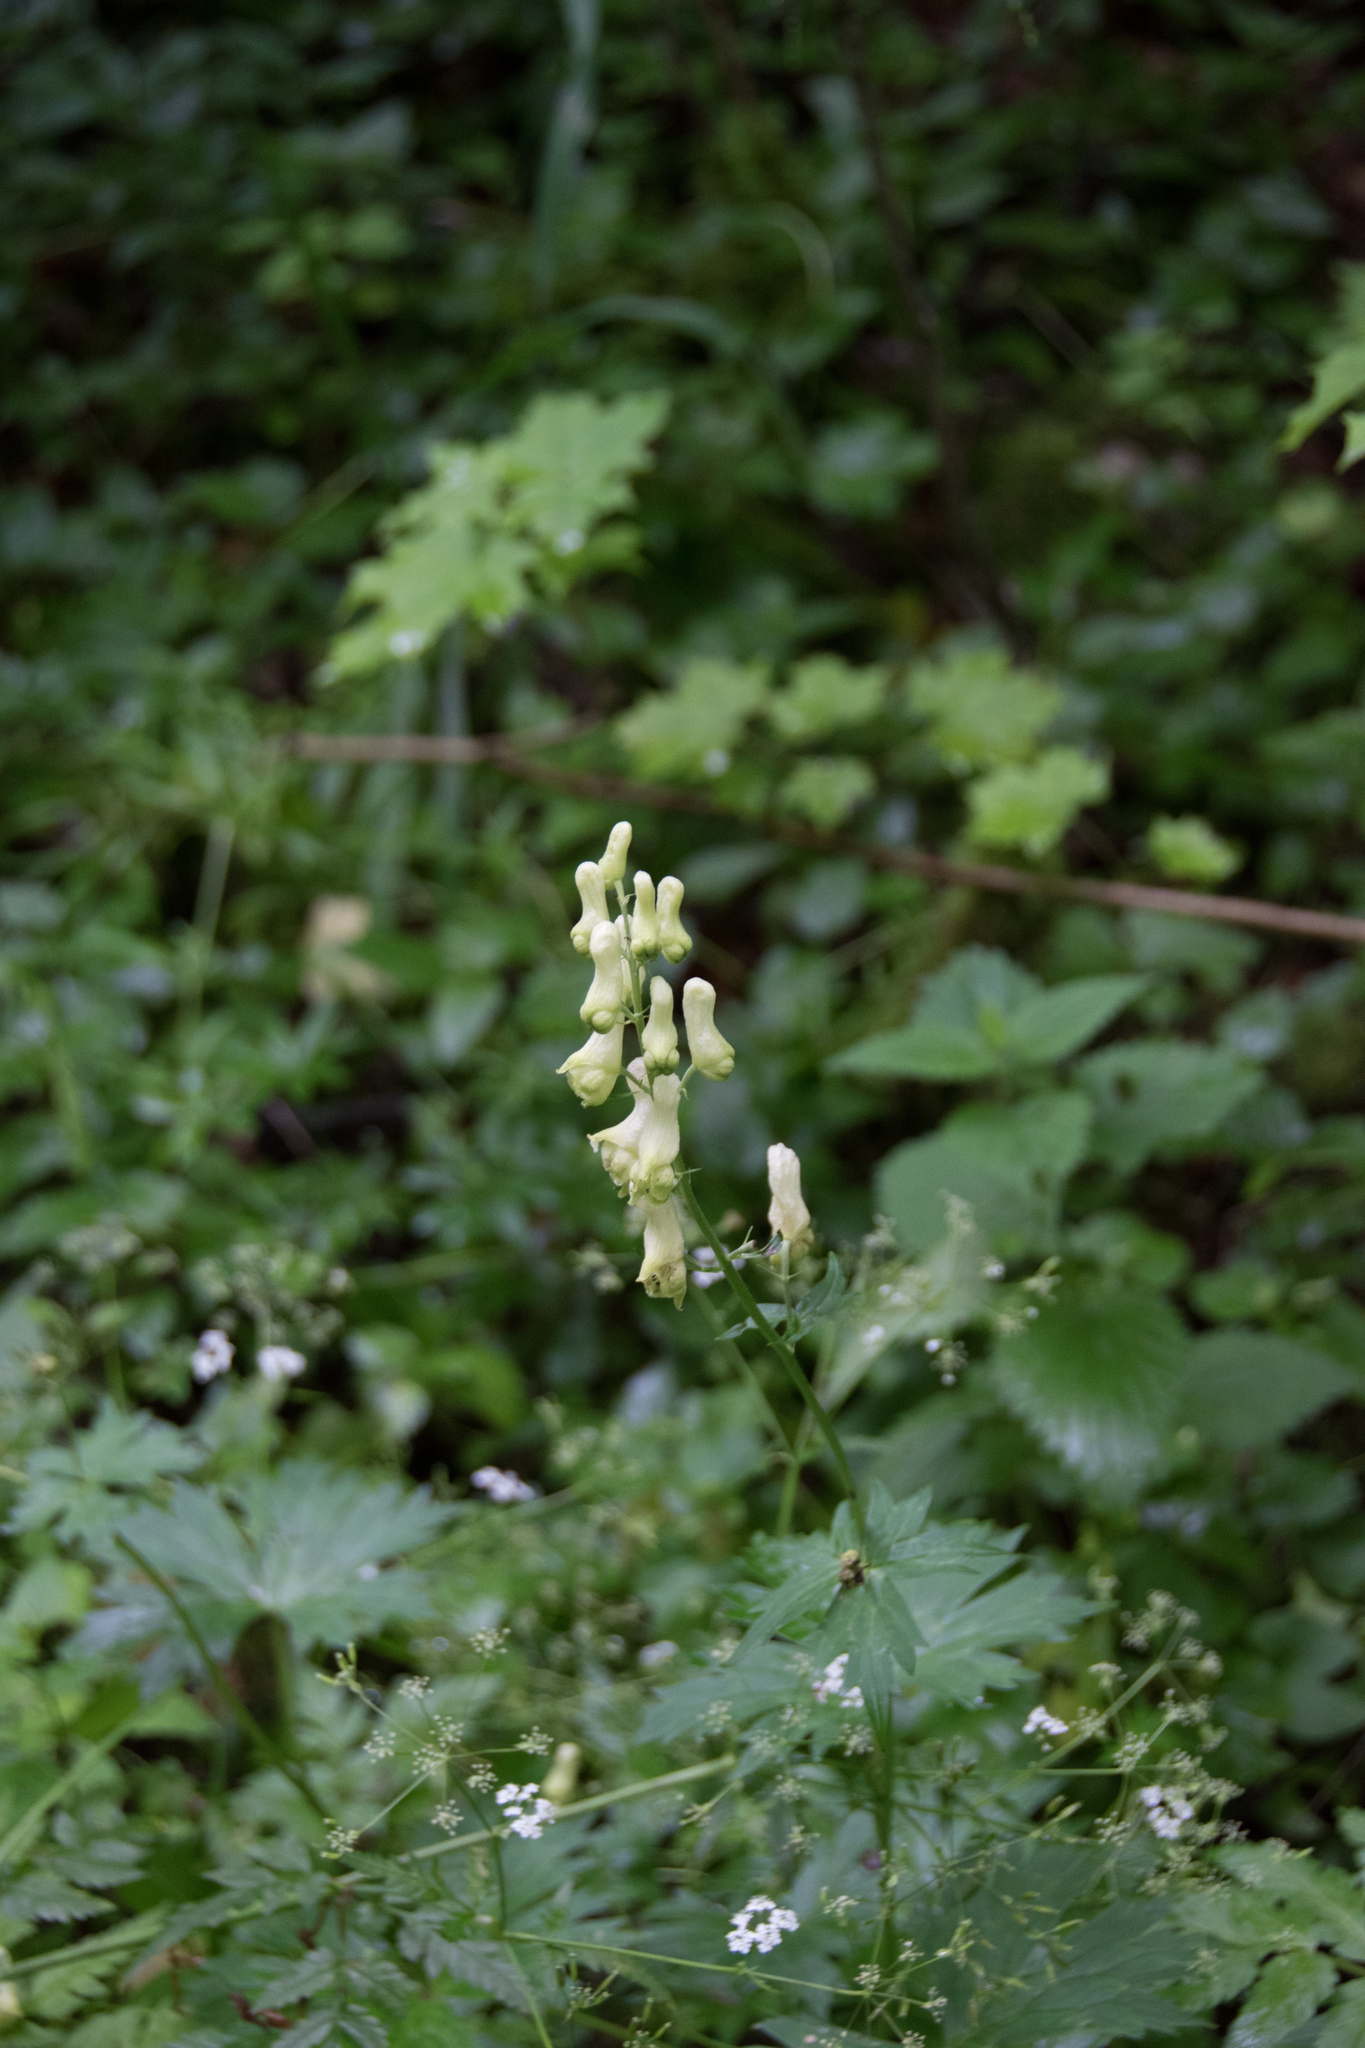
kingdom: Plantae
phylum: Tracheophyta
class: Magnoliopsida
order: Ranunculales
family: Ranunculaceae
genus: Aconitum
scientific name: Aconitum lycoctonum
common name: Wolf's-bane
